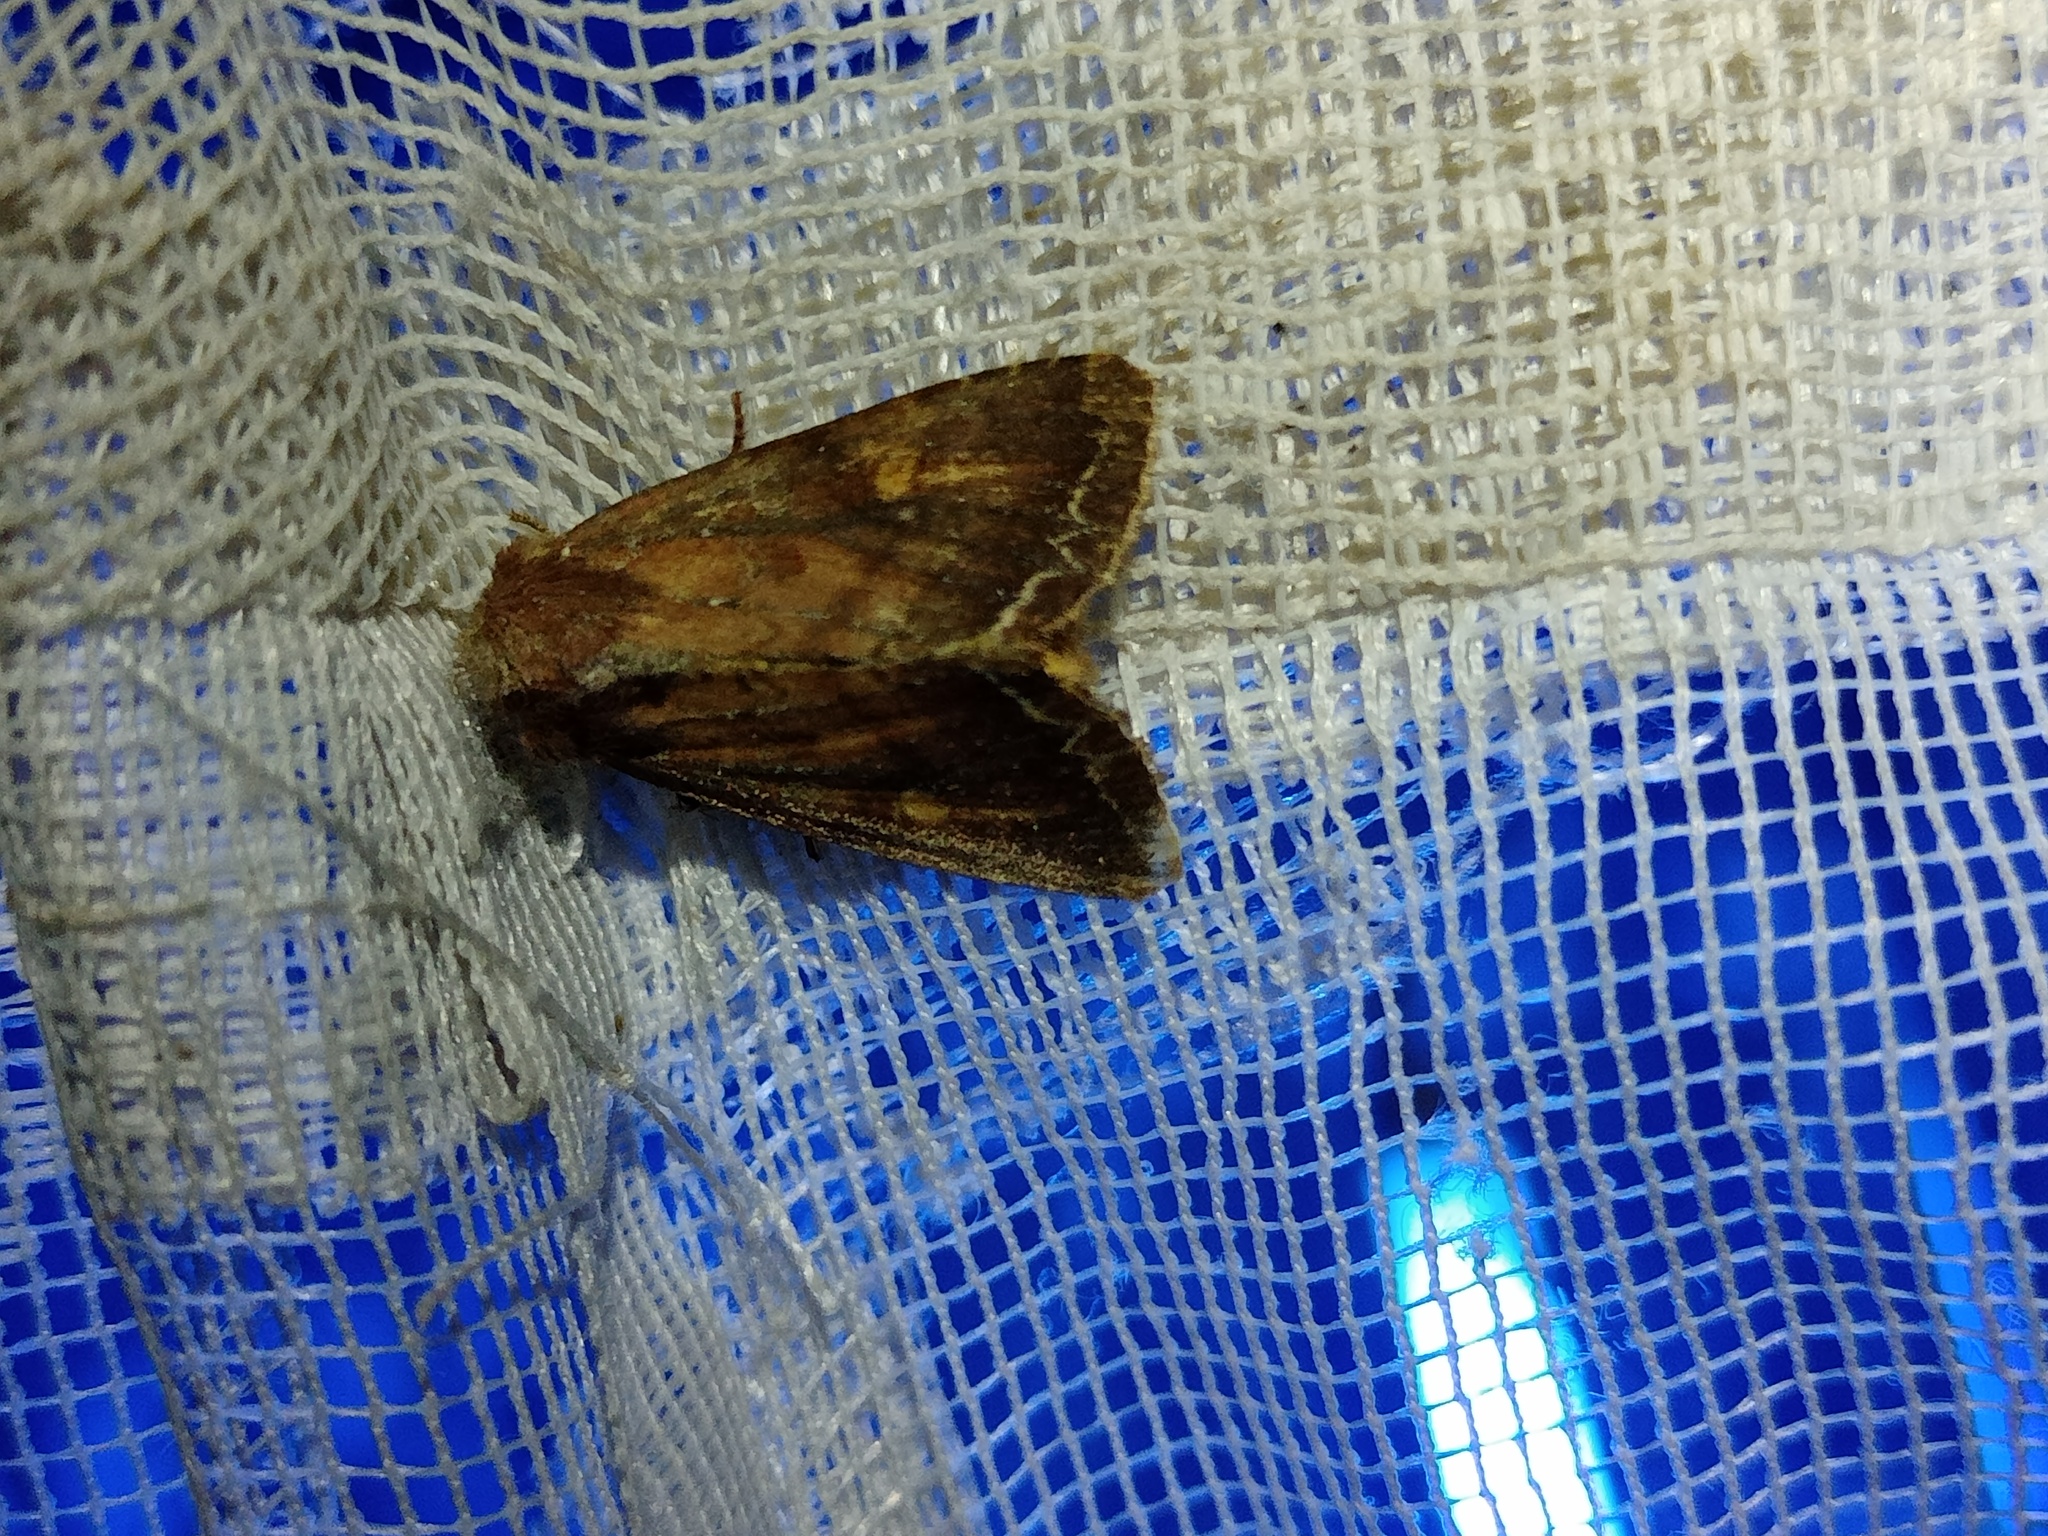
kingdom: Animalia
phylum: Arthropoda
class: Insecta
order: Lepidoptera
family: Noctuidae
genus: Lacanobia
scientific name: Lacanobia oleracea
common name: Bright-line brown-eye
